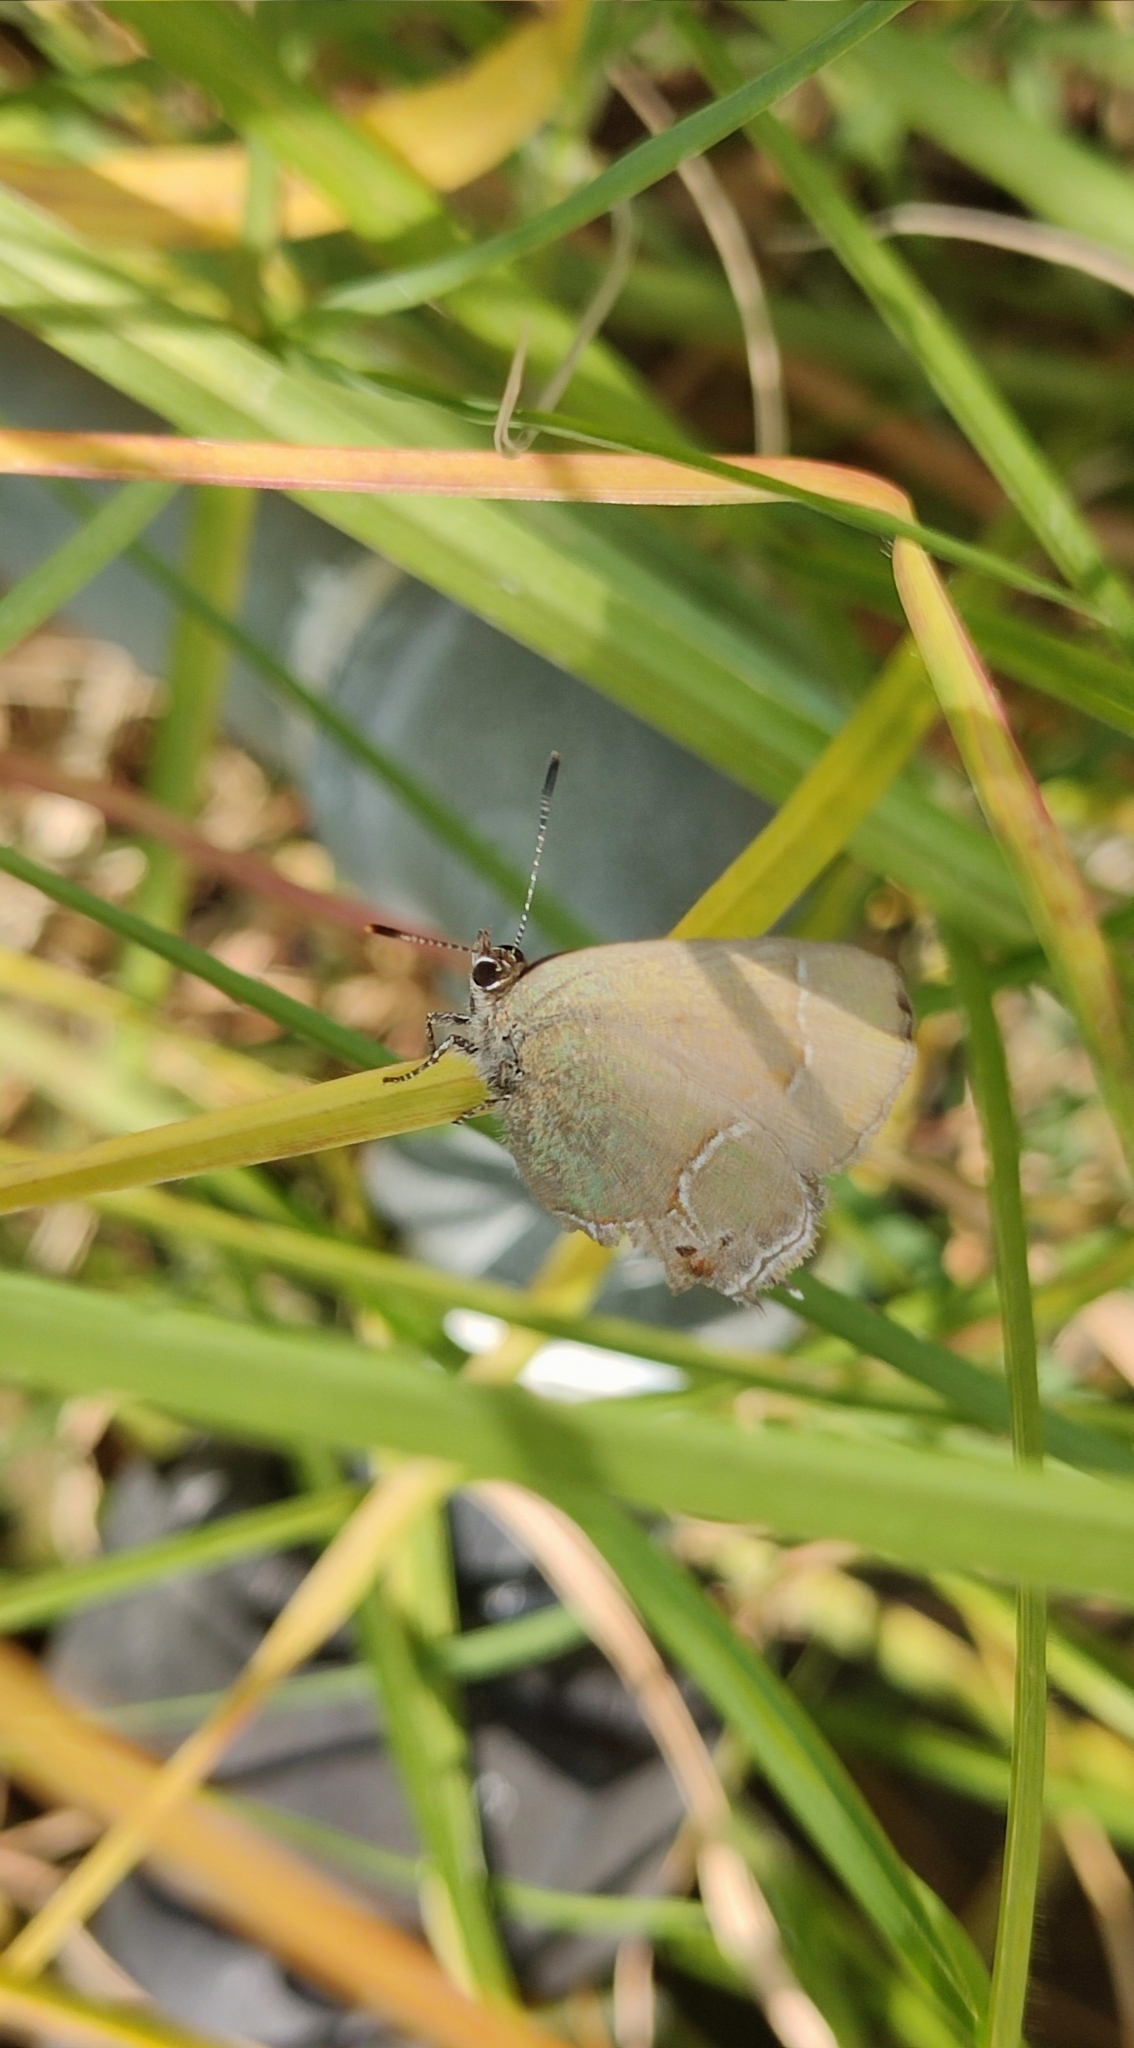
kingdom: Animalia
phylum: Arthropoda
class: Insecta
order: Lepidoptera
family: Lycaenidae
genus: Xamia
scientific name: Xamia xami
